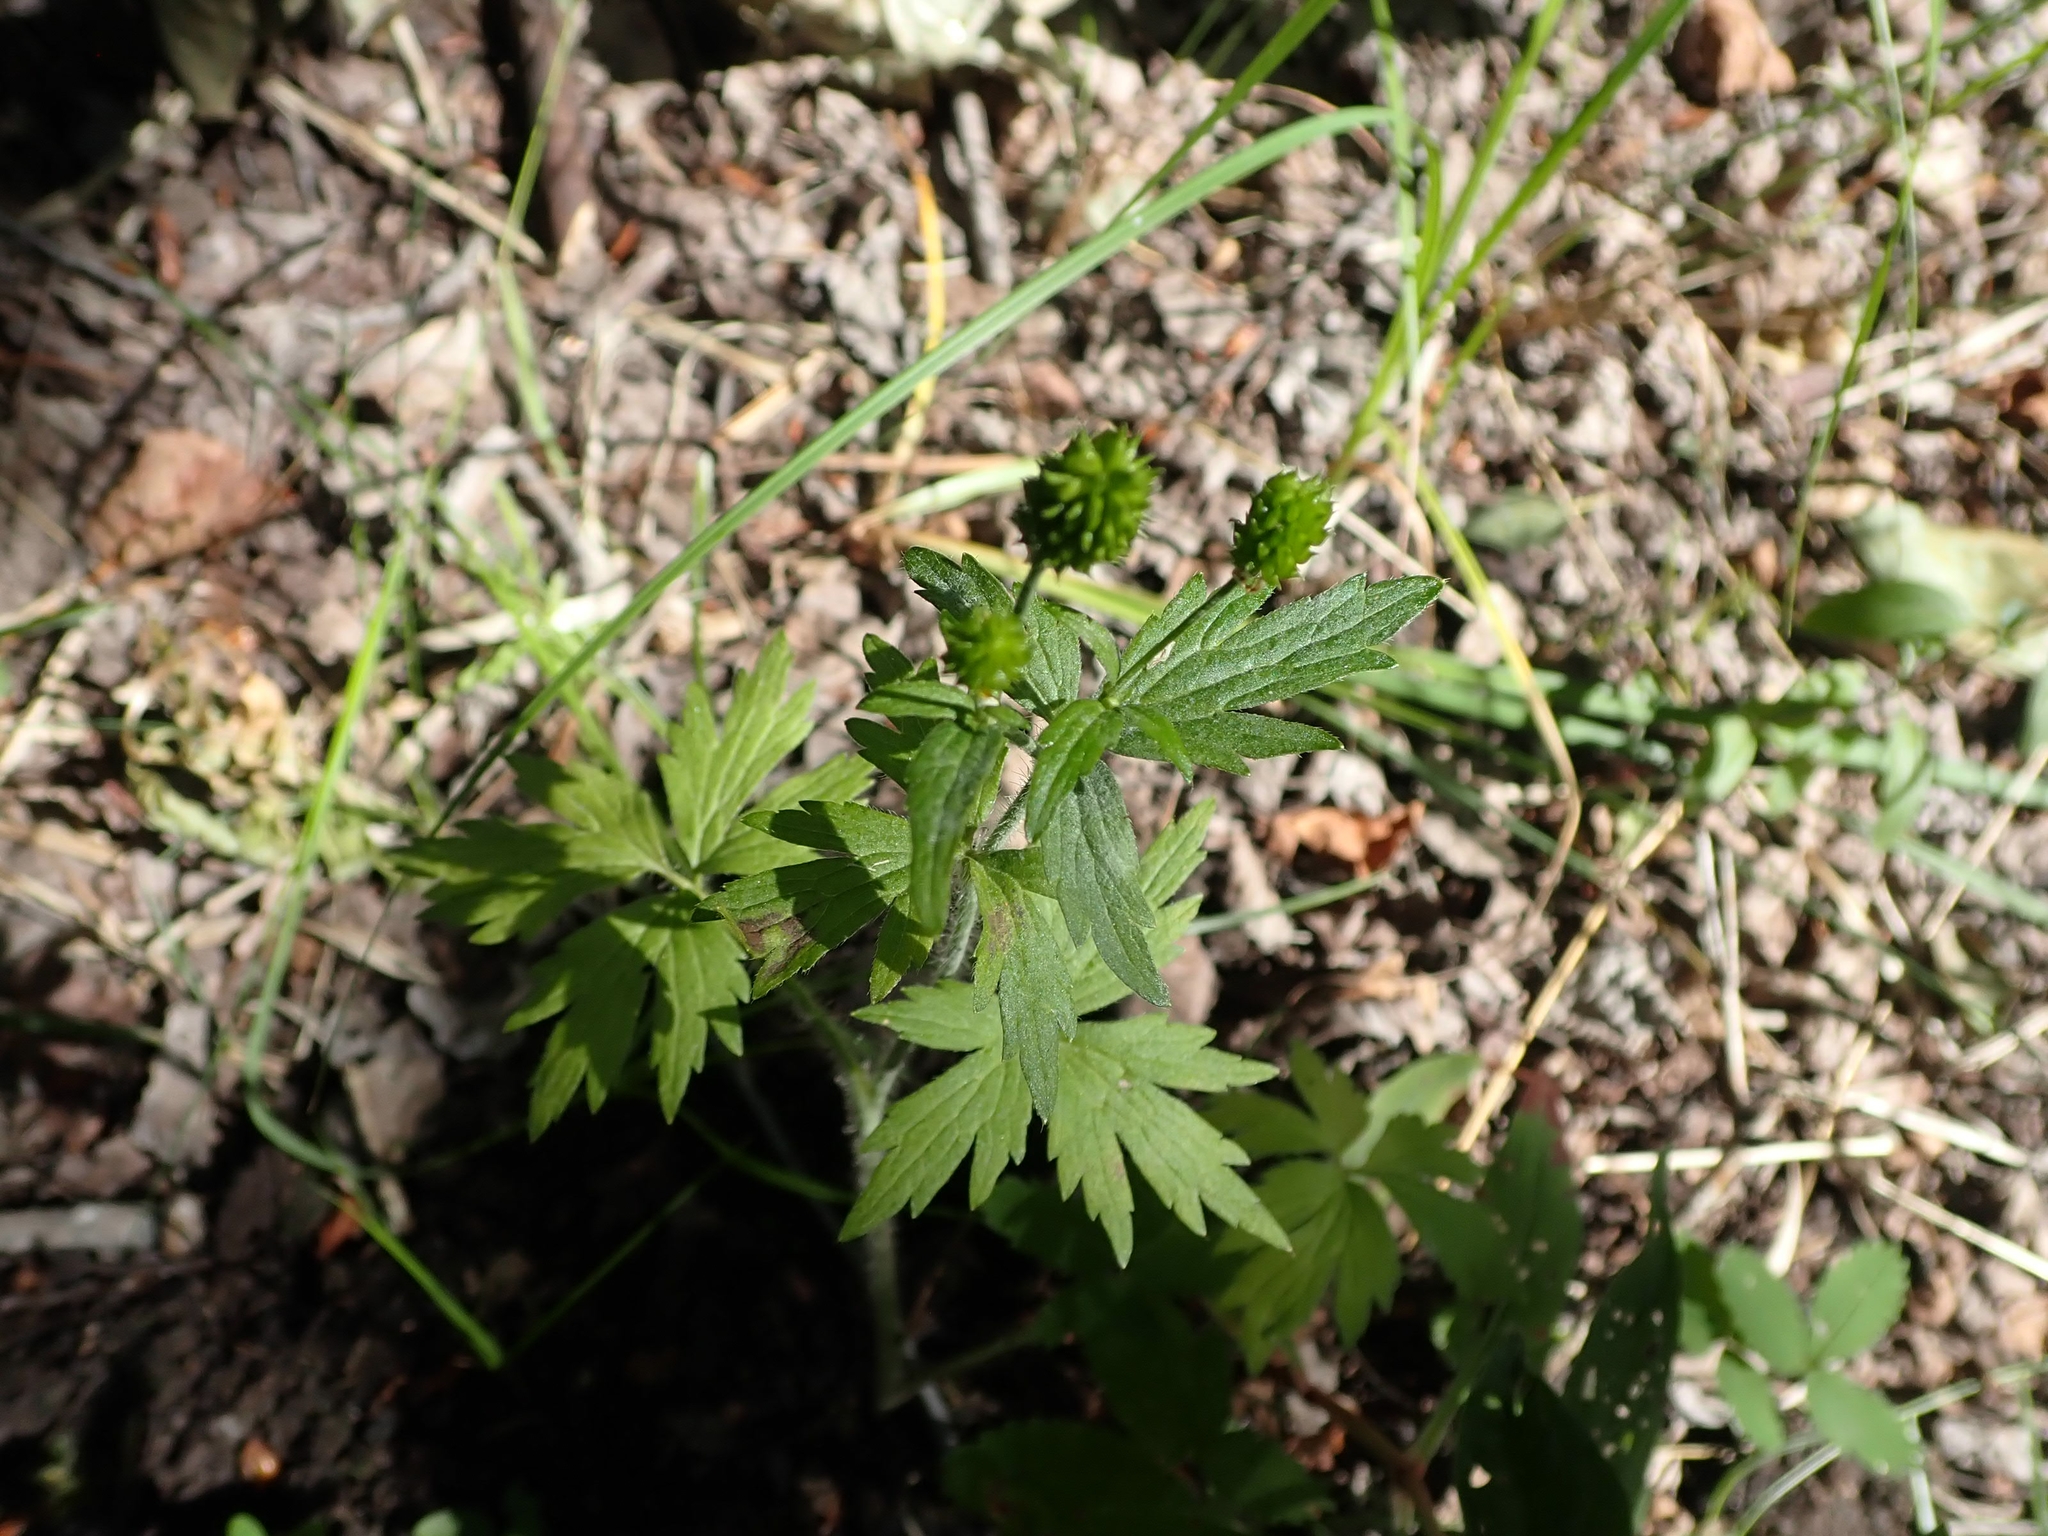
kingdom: Plantae
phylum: Tracheophyta
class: Magnoliopsida
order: Ranunculales
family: Ranunculaceae
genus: Anemonastrum
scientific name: Anemonastrum canadense
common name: Canada anemone
